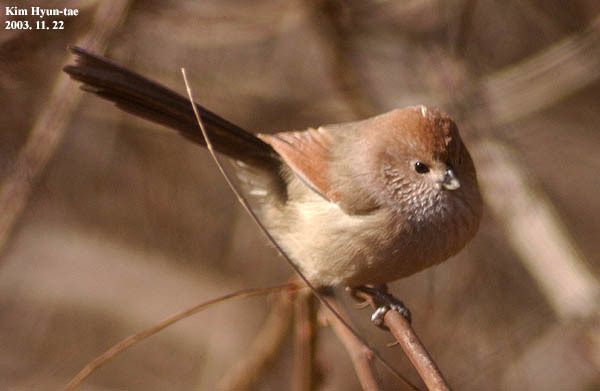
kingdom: Animalia
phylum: Chordata
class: Aves
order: Passeriformes
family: Sylviidae
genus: Sinosuthora
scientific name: Sinosuthora webbiana
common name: Vinous-throated parrotbill
